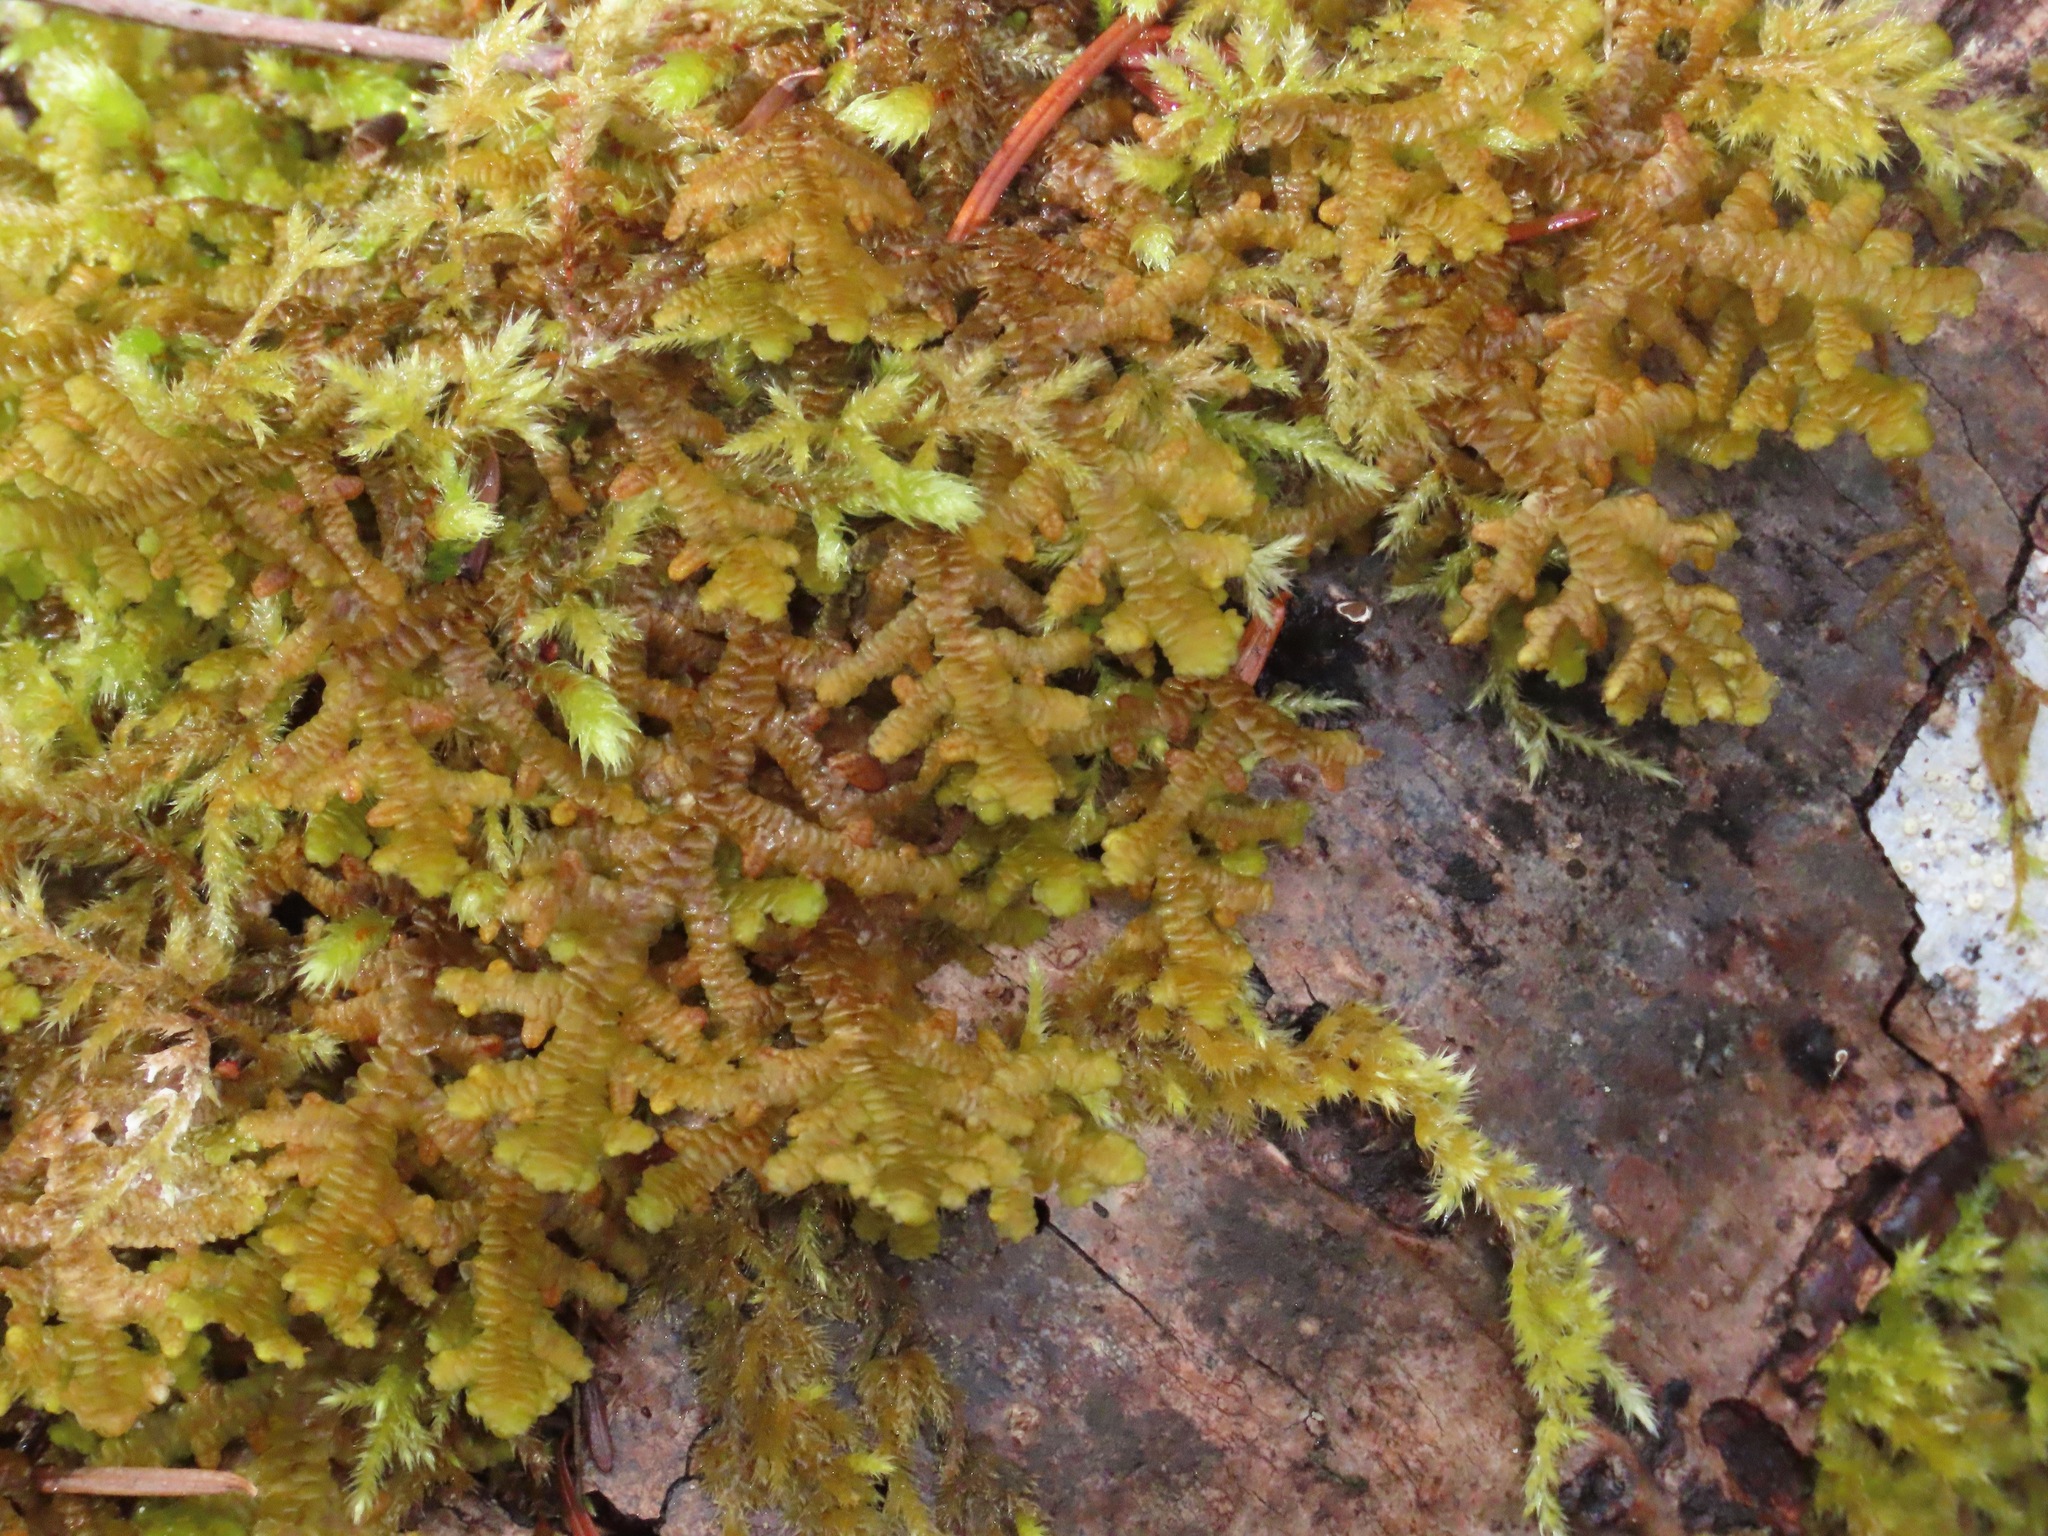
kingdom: Plantae
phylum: Marchantiophyta
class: Jungermanniopsida
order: Porellales
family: Porellaceae
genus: Porella
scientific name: Porella navicularis
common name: Tree ruffle liverwort
